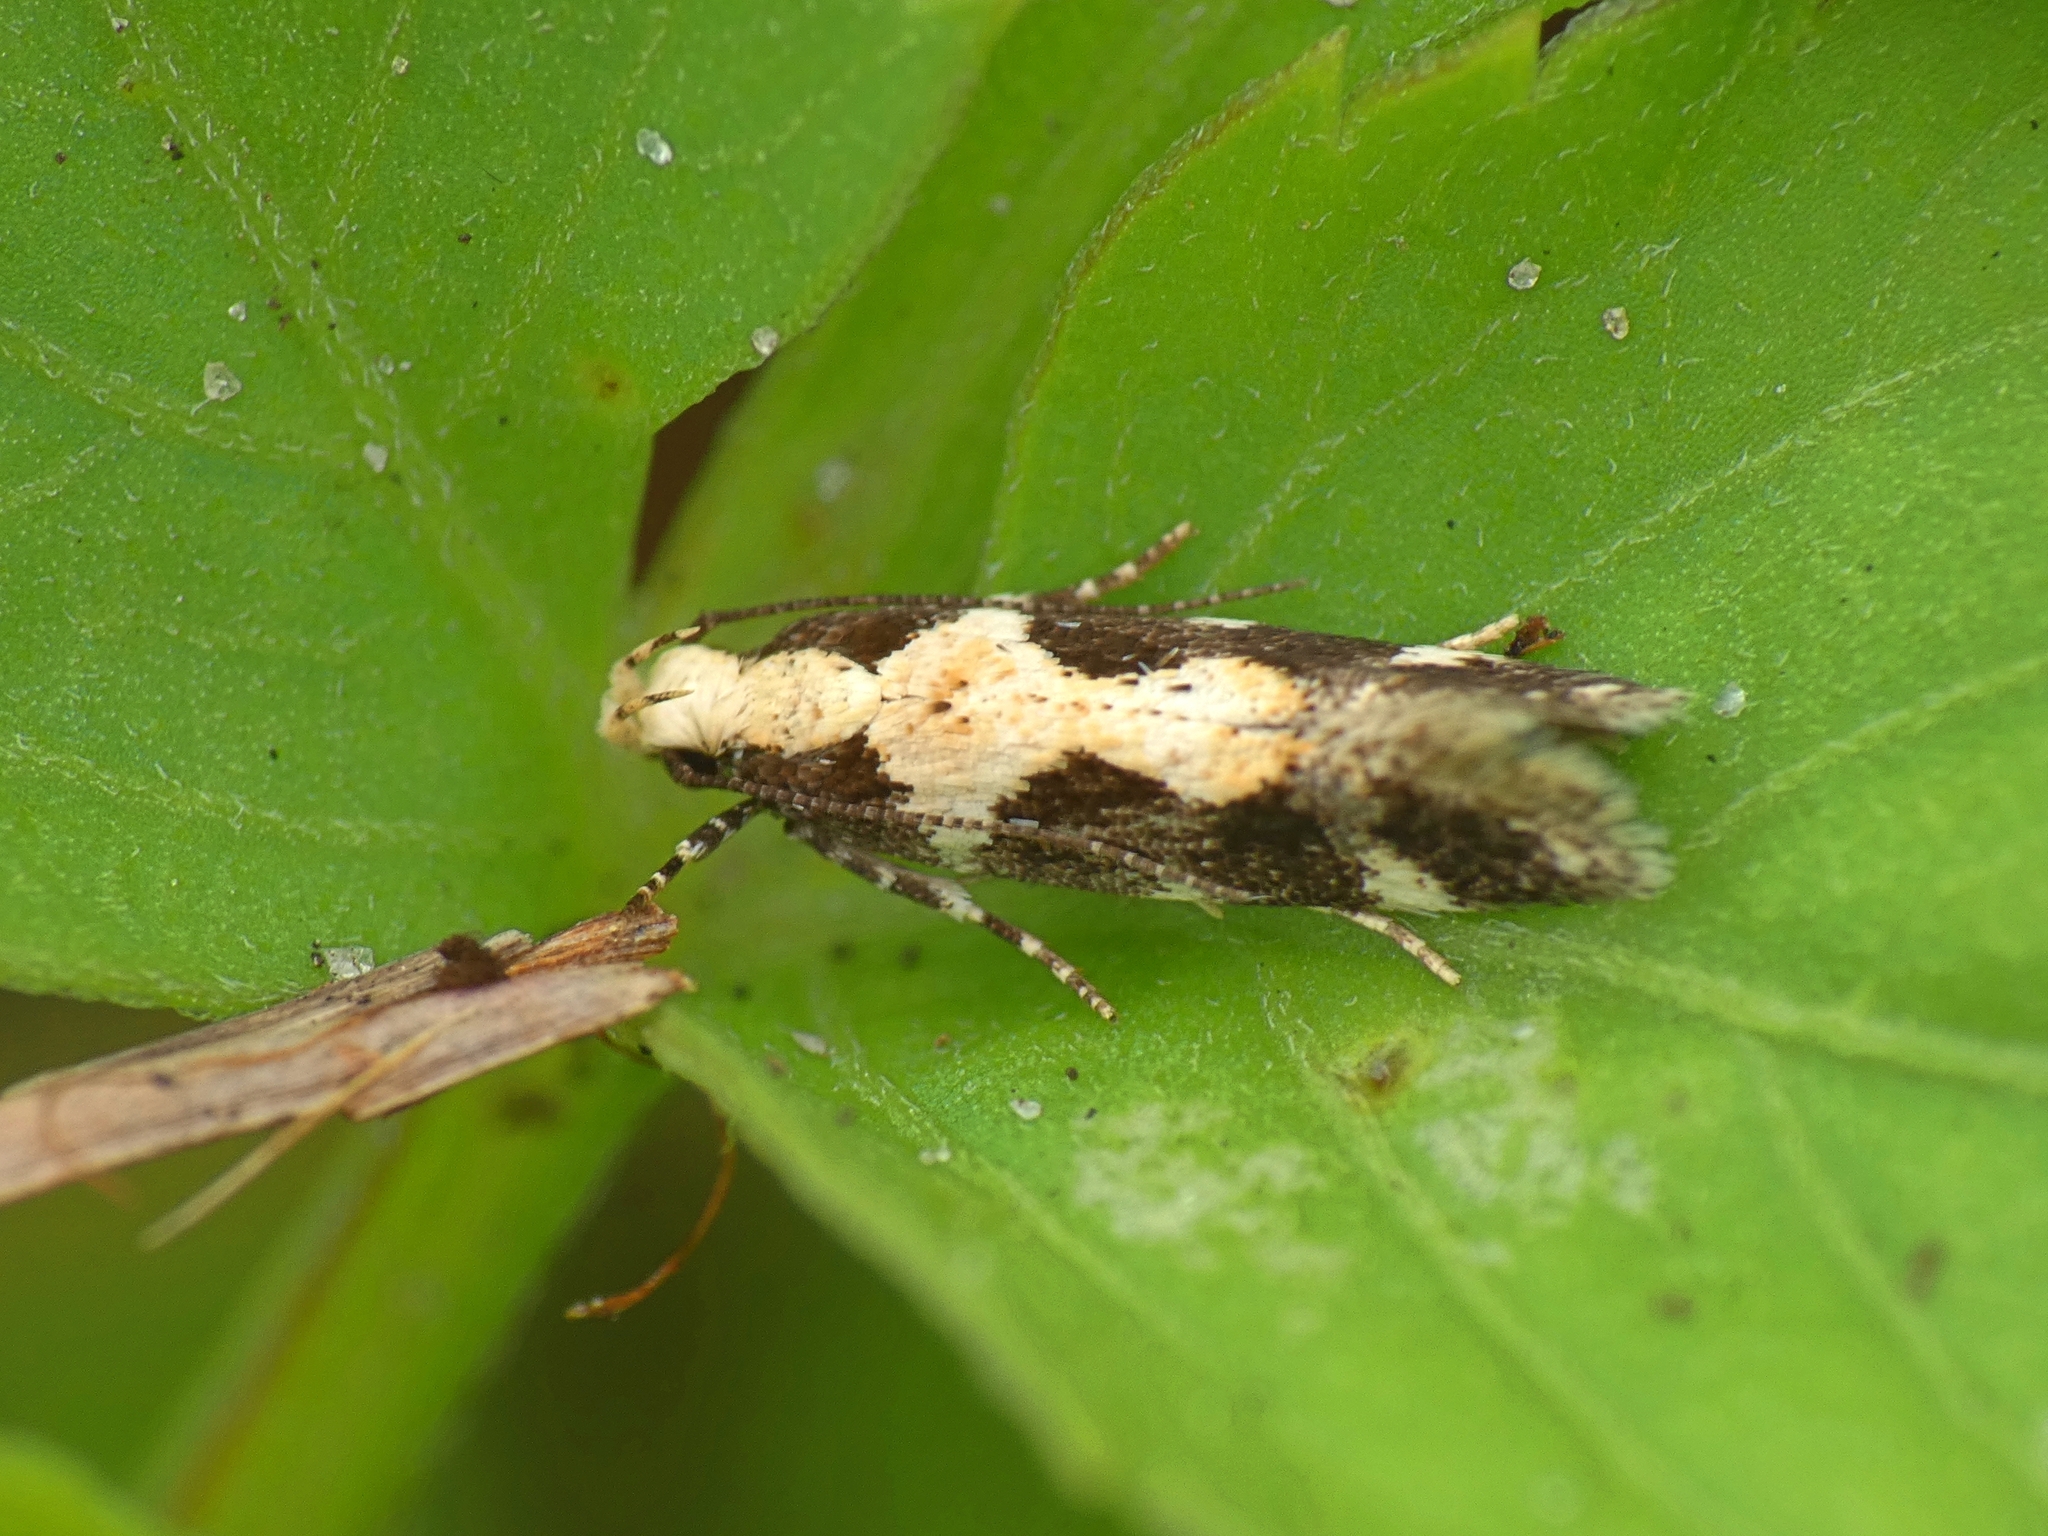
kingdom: Animalia
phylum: Arthropoda
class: Insecta
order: Lepidoptera
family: Gelechiidae
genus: Stegasta
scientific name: Stegasta capitella
